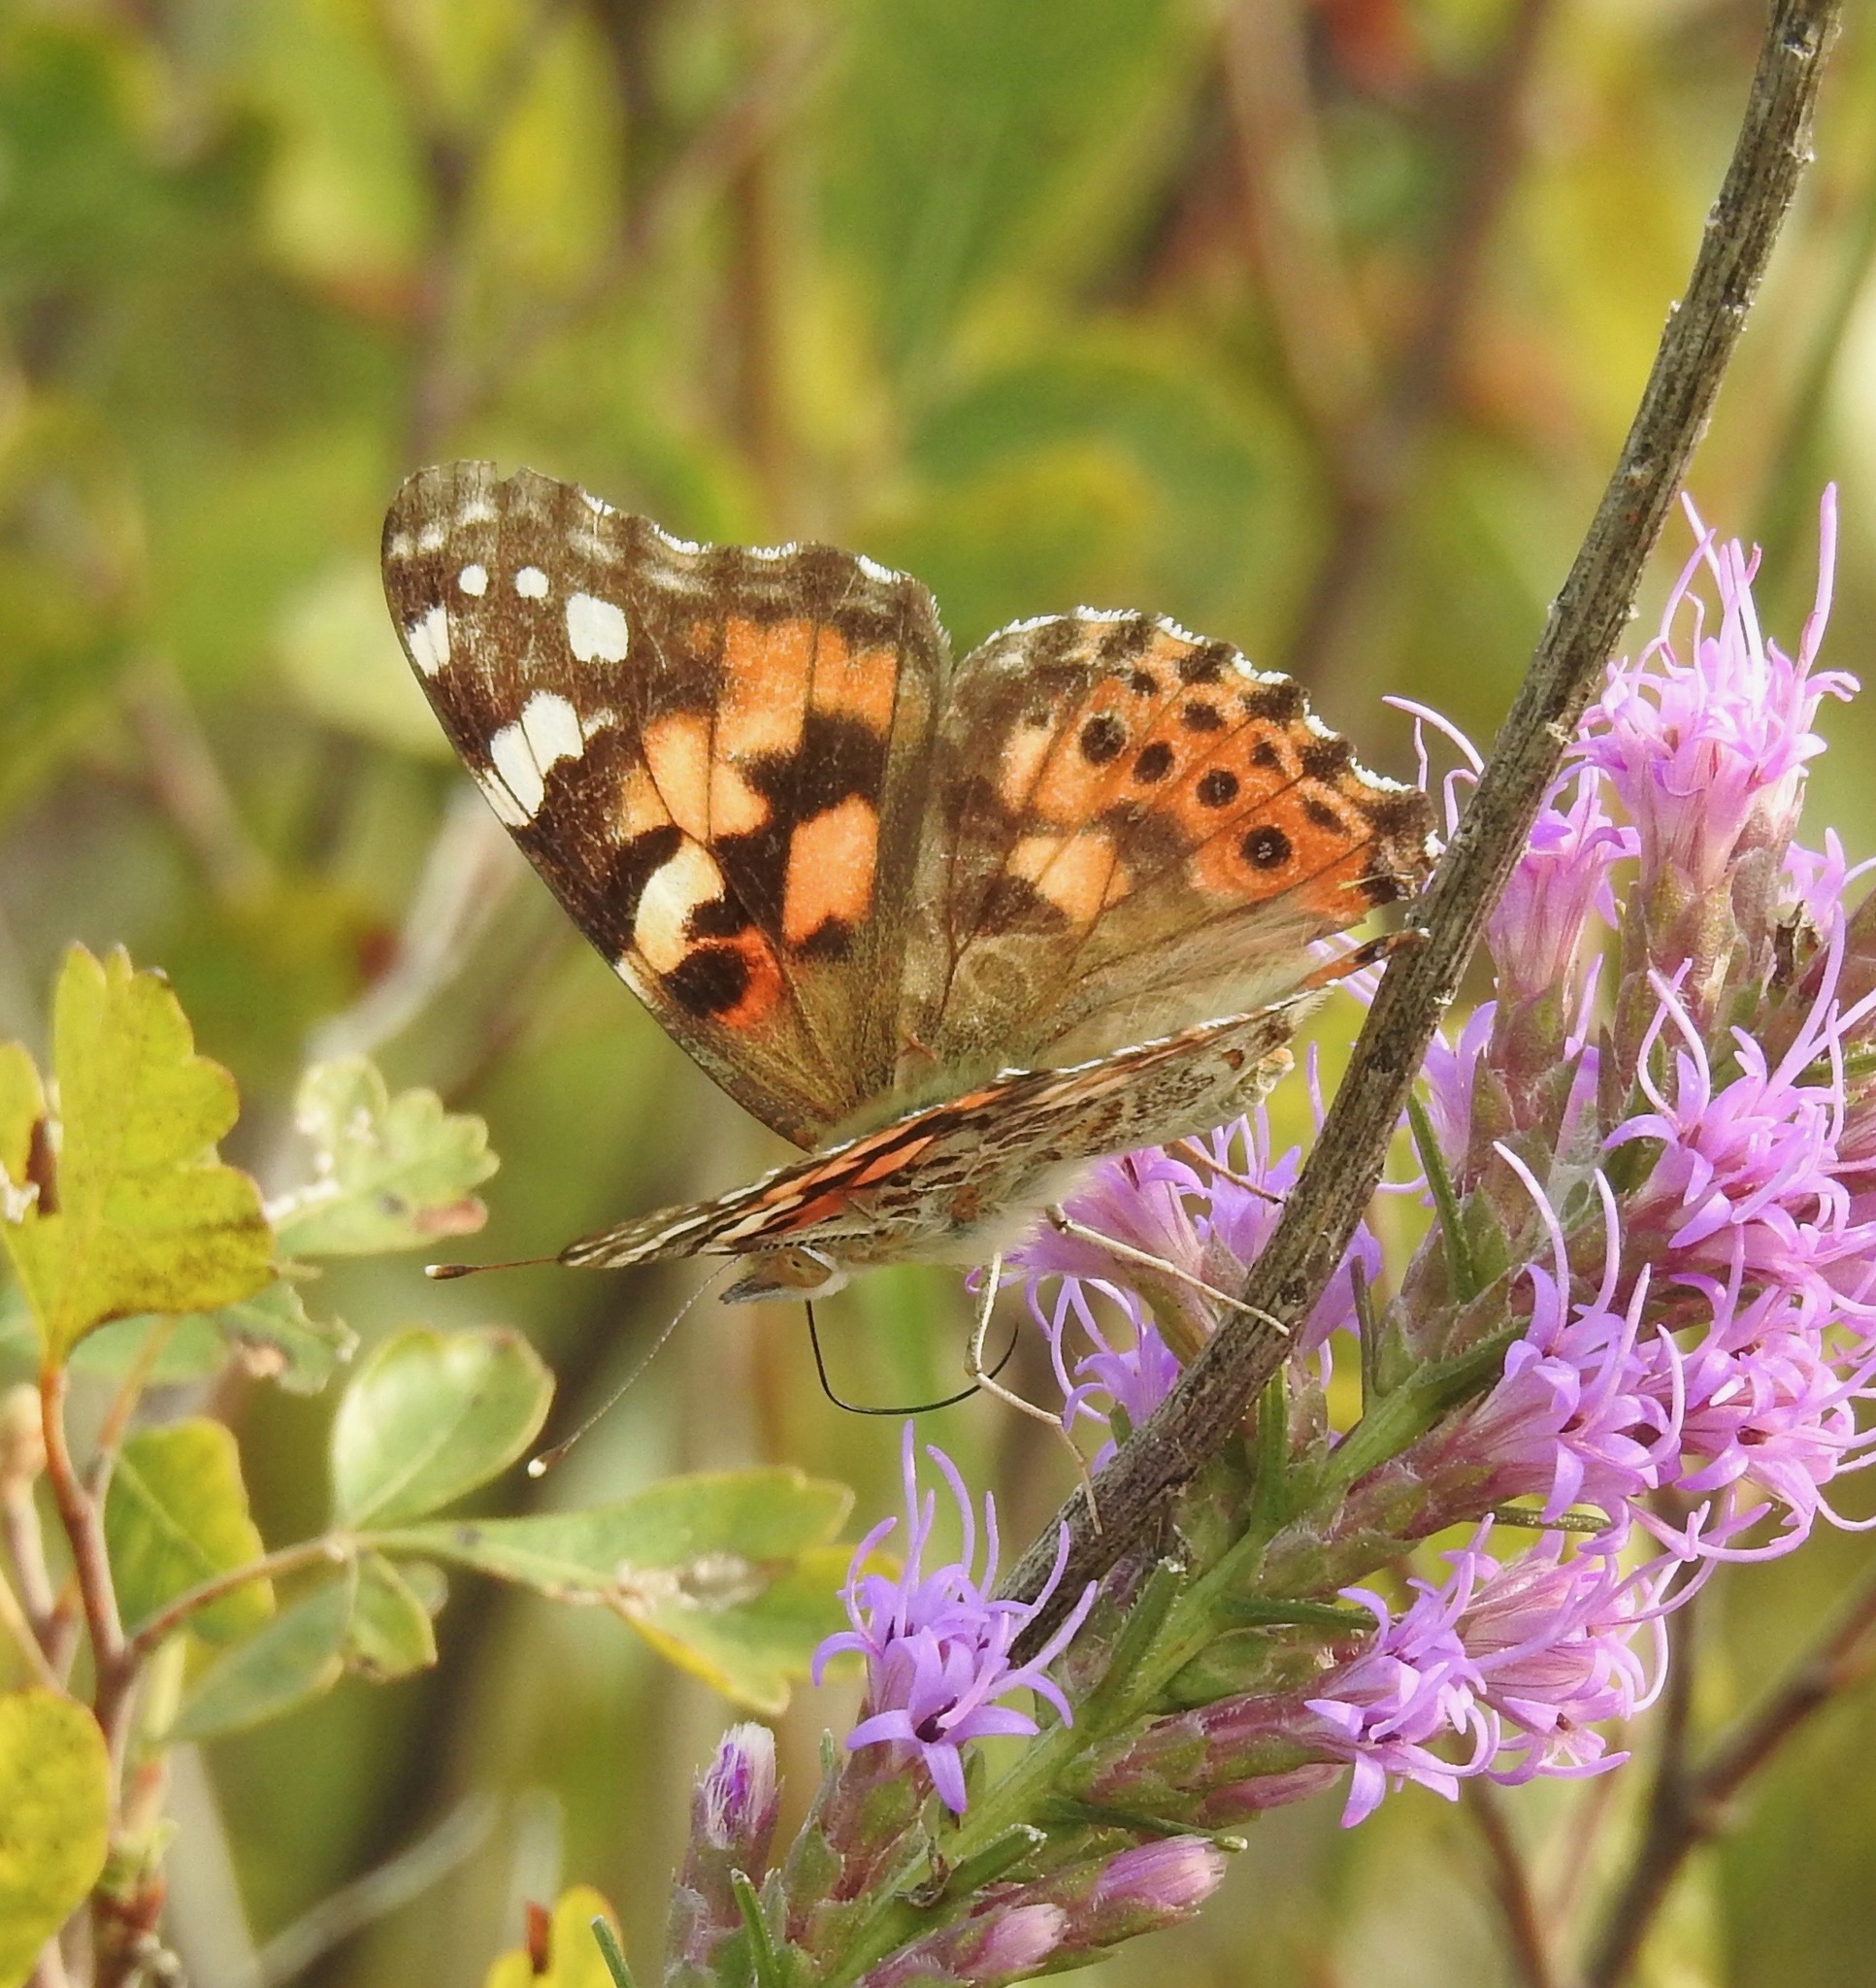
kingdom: Animalia
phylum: Arthropoda
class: Insecta
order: Lepidoptera
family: Nymphalidae
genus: Vanessa
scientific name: Vanessa cardui
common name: Painted lady
